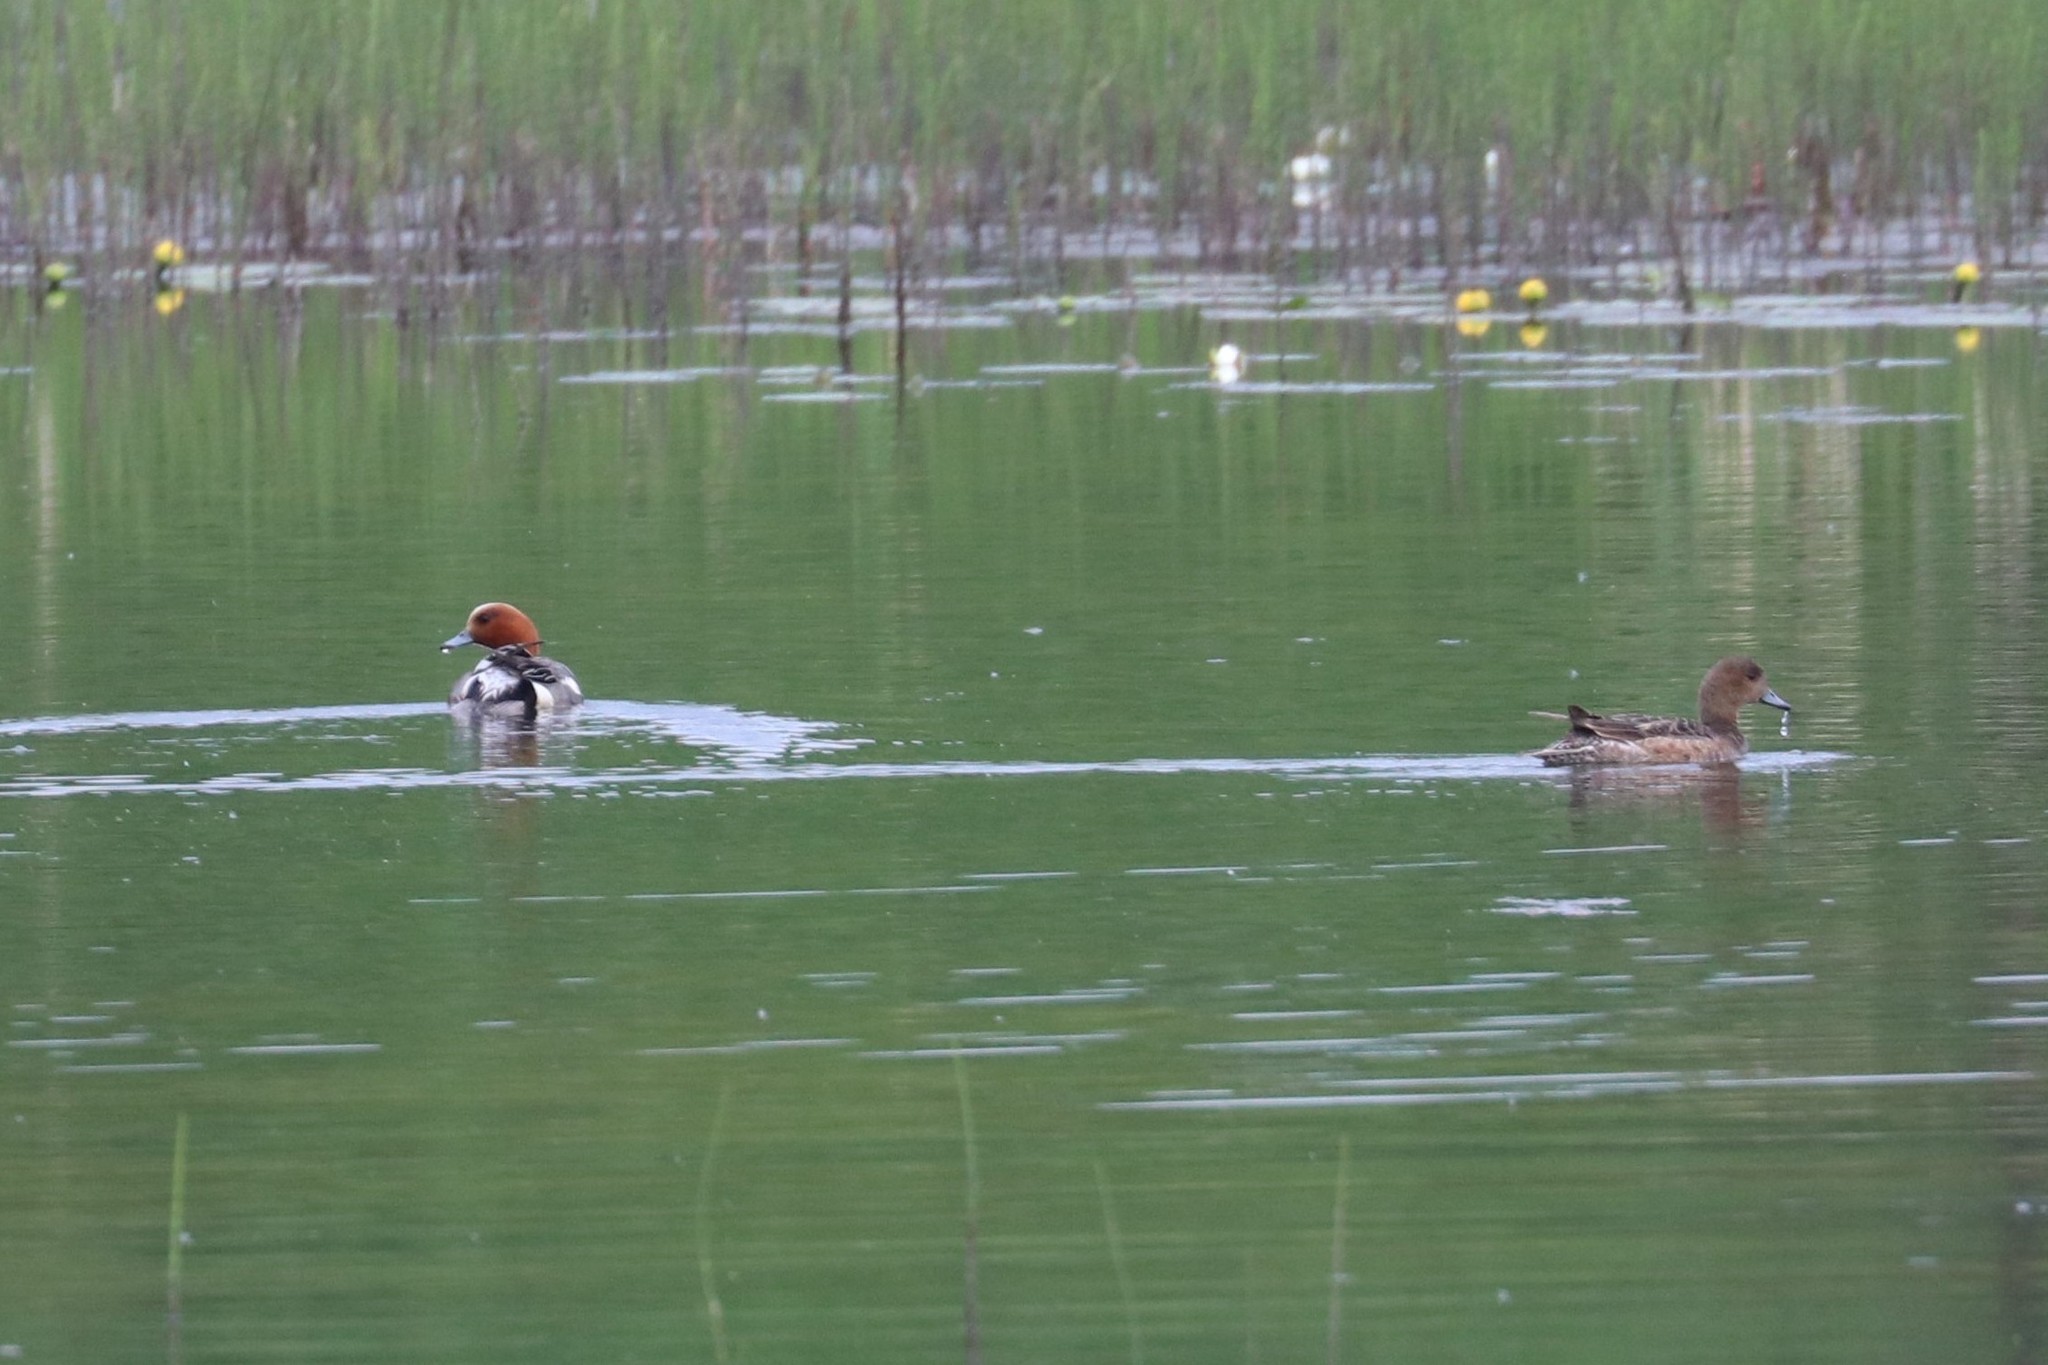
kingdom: Animalia
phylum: Chordata
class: Aves
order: Anseriformes
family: Anatidae
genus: Mareca
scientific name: Mareca penelope
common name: Eurasian wigeon
